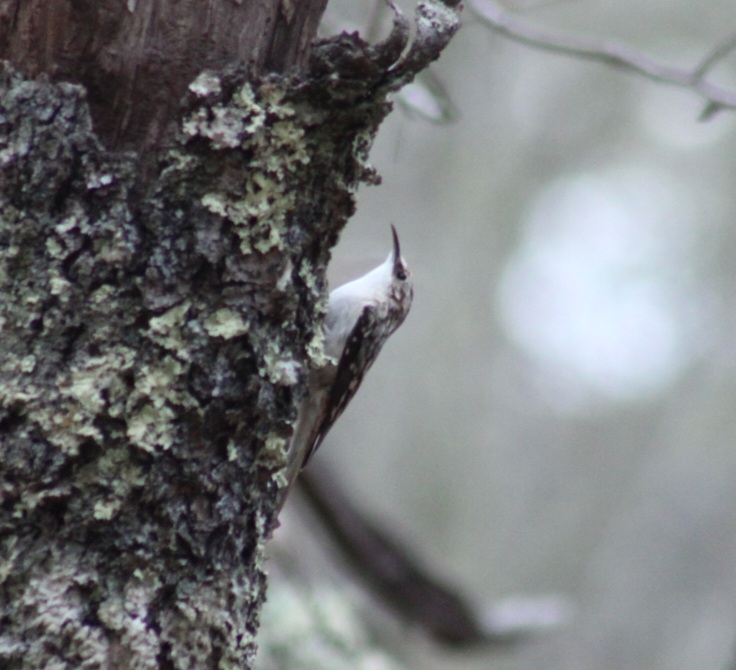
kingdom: Animalia
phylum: Chordata
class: Aves
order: Passeriformes
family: Certhiidae
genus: Certhia
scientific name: Certhia americana
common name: Brown creeper
